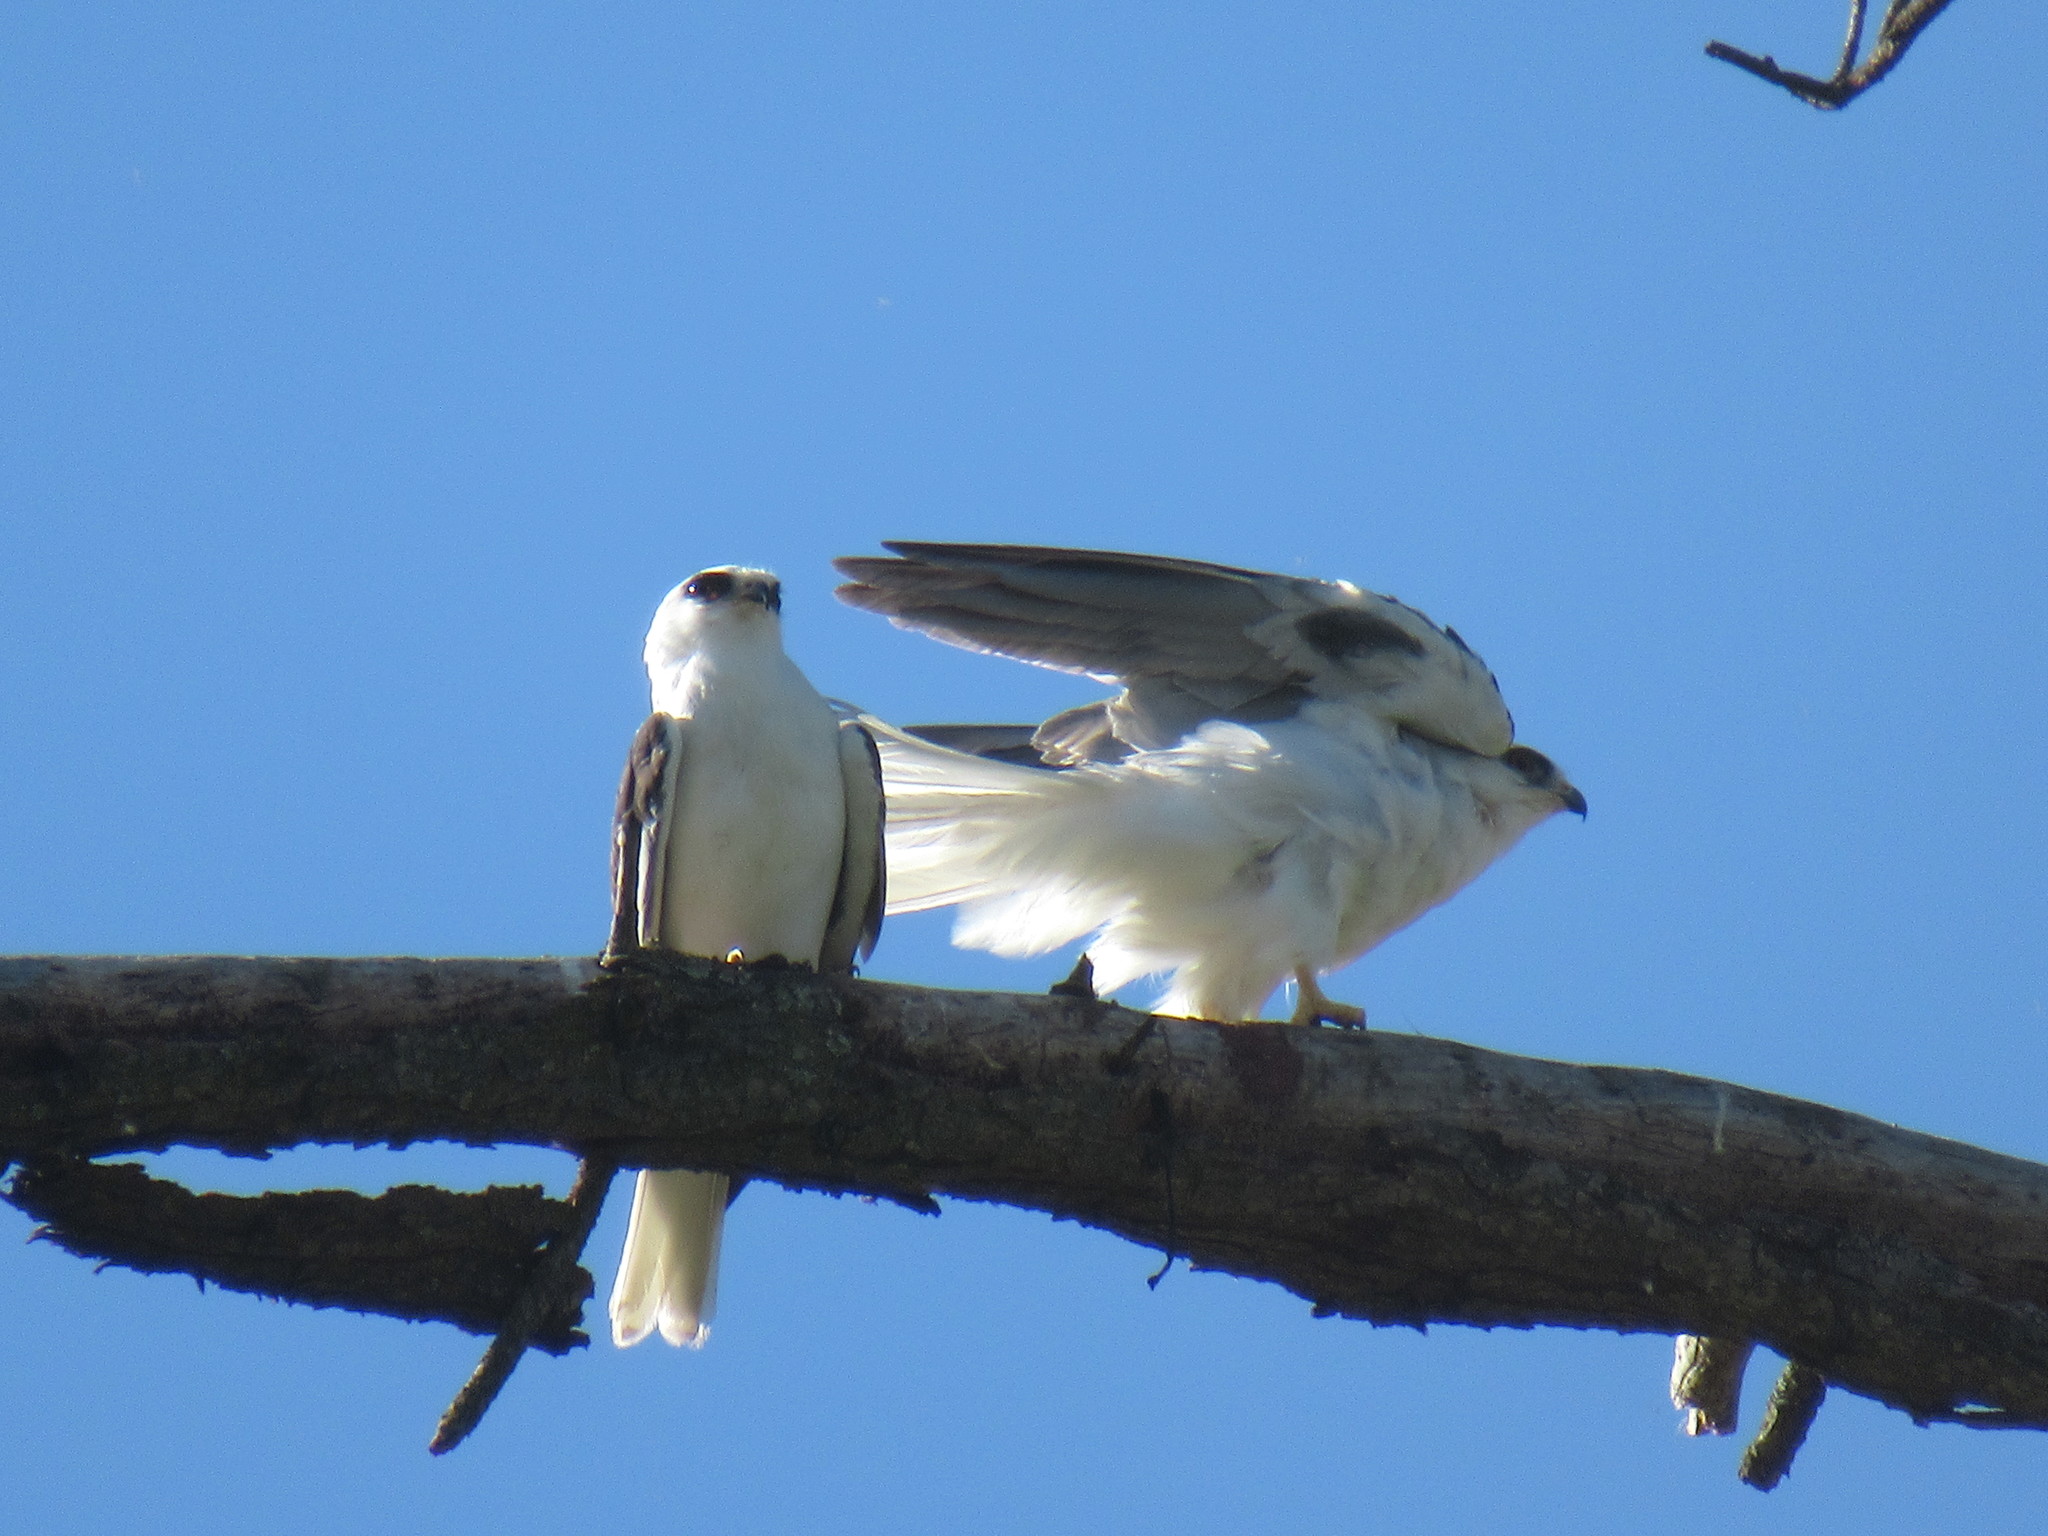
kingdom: Animalia
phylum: Chordata
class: Aves
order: Accipitriformes
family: Accipitridae
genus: Elanus
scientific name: Elanus leucurus
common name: White-tailed kite
